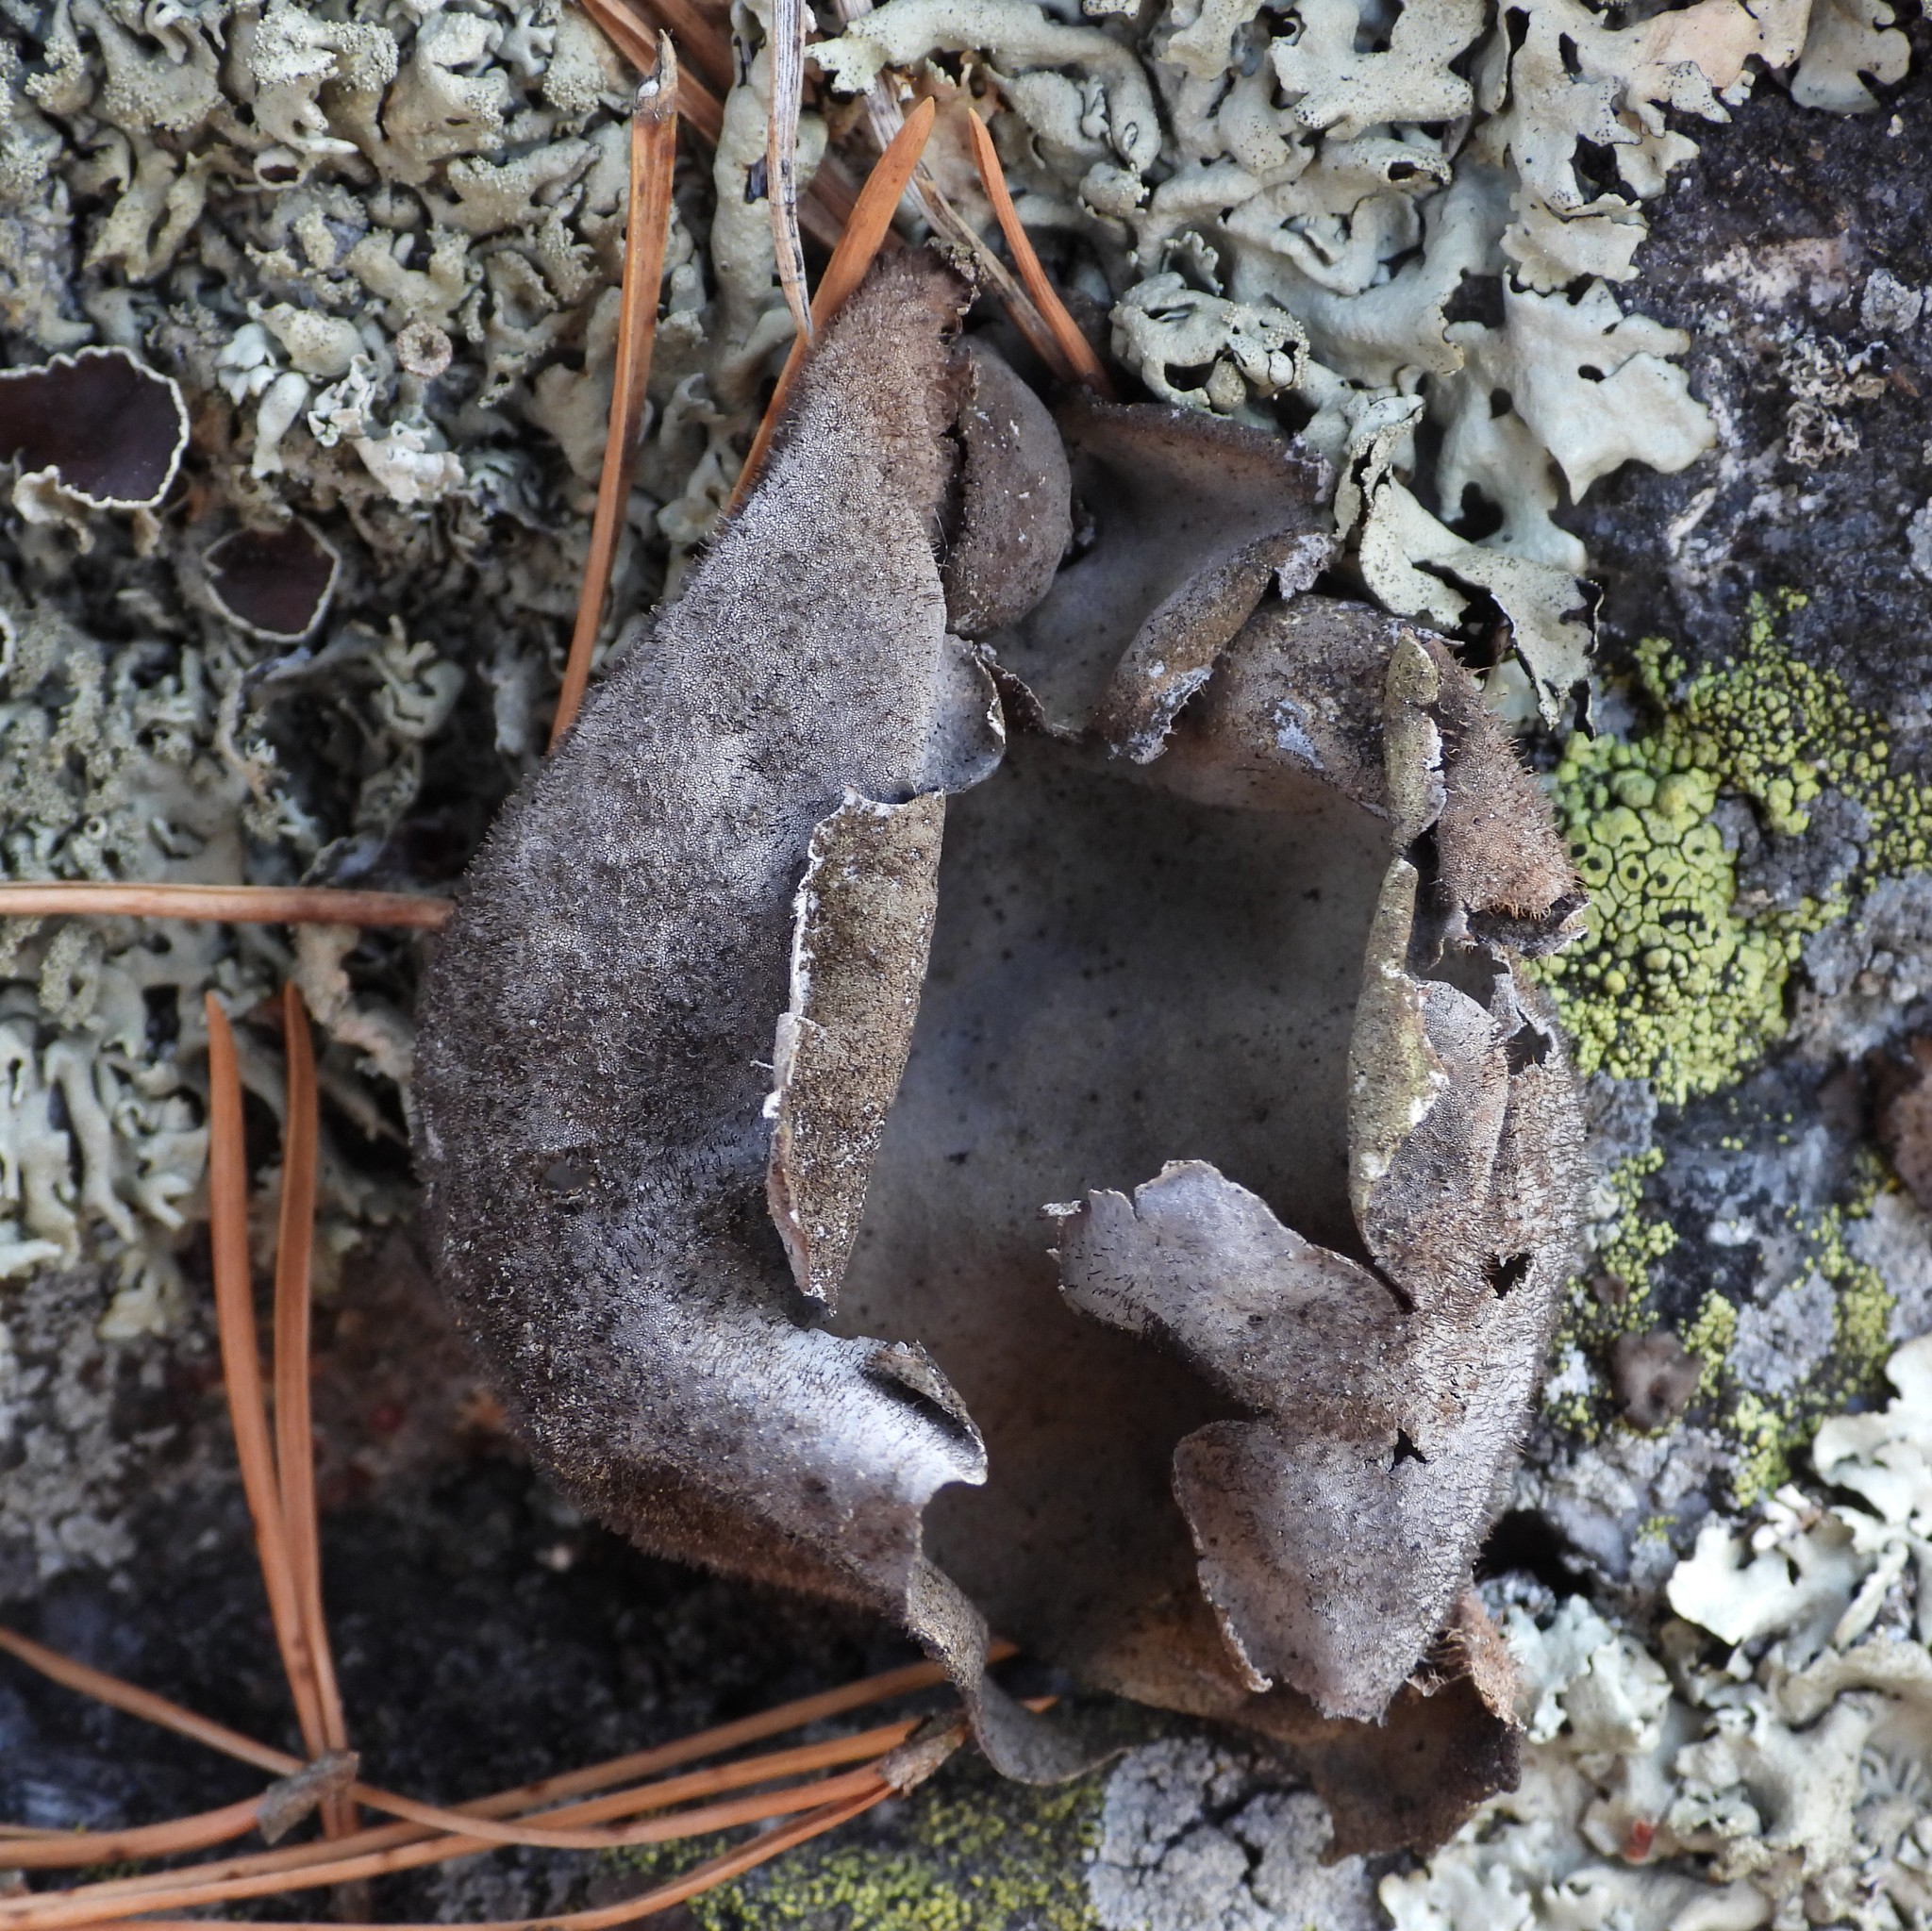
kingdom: Fungi
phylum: Ascomycota
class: Lecanoromycetes
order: Umbilicariales
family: Umbilicariaceae
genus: Umbilicaria
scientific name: Umbilicaria hirsuta
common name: Granulating rocktripe lichen
